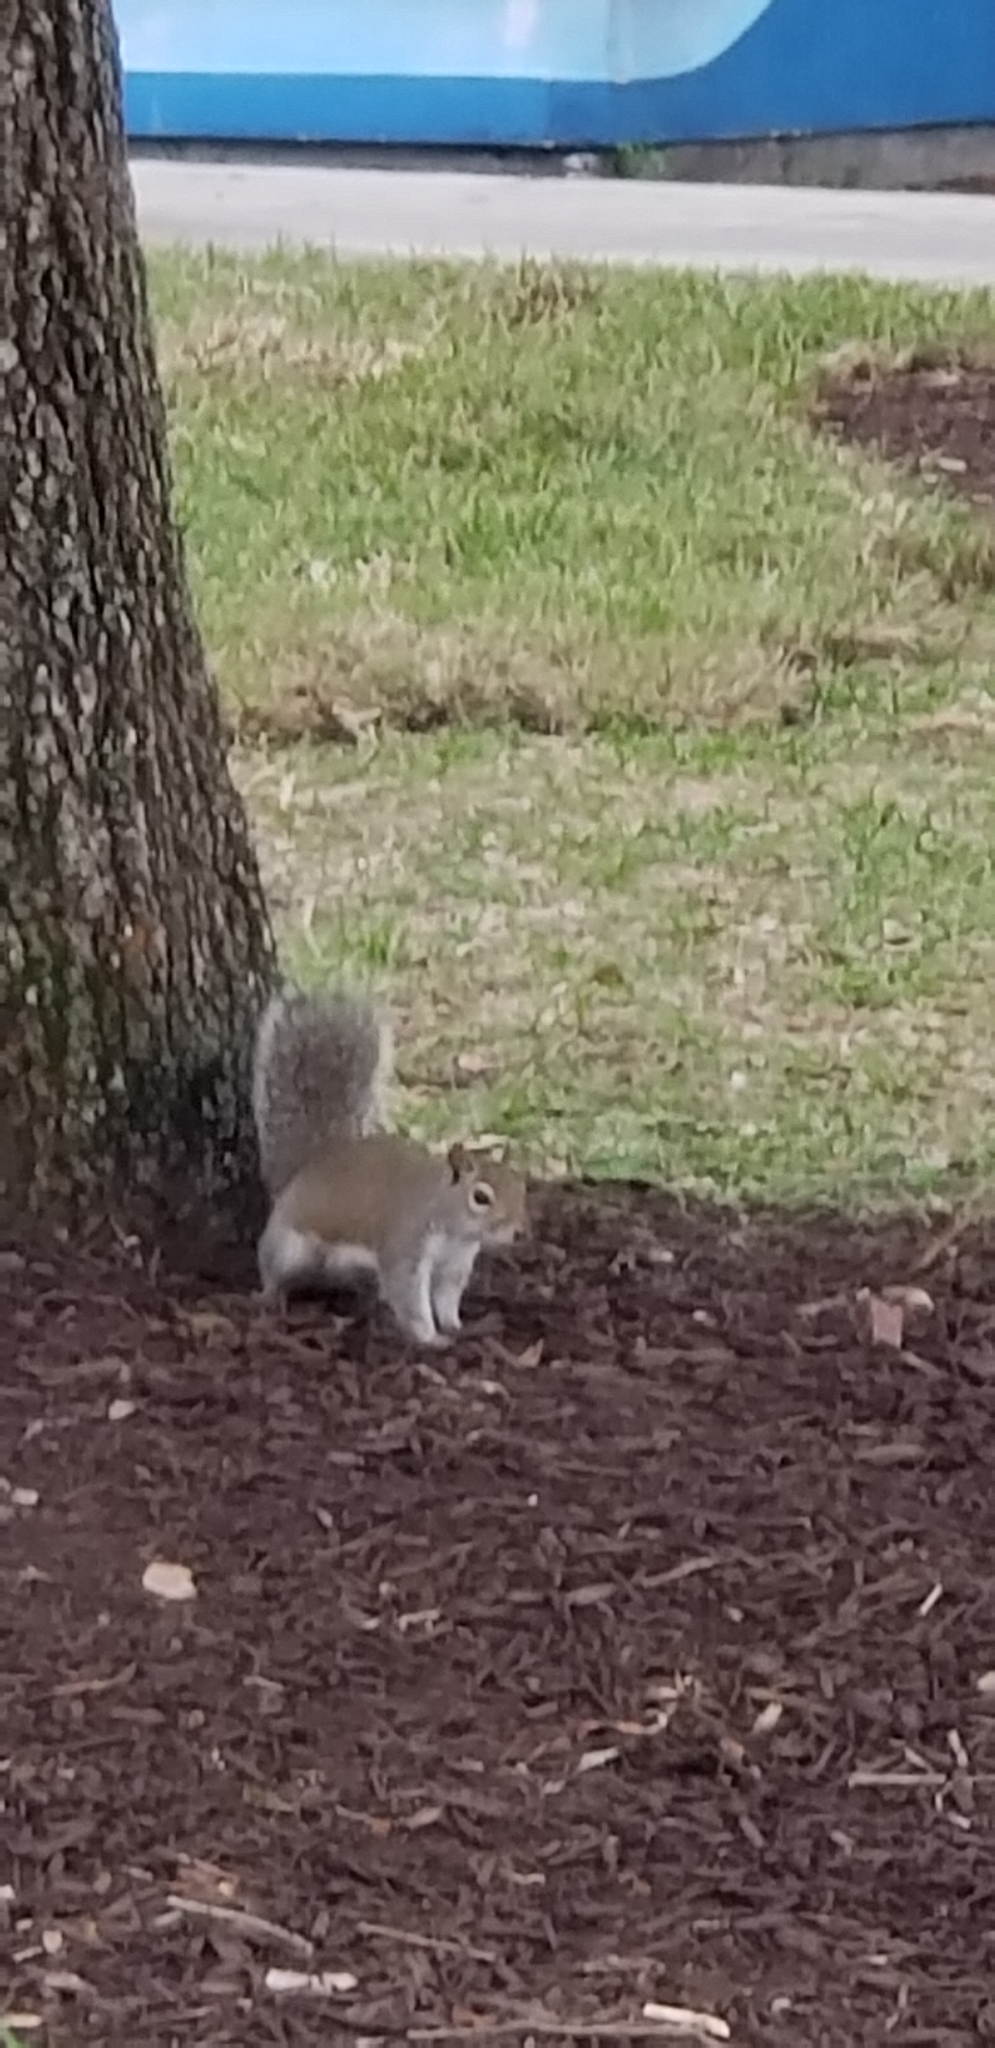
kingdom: Animalia
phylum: Chordata
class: Mammalia
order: Rodentia
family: Sciuridae
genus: Sciurus
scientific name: Sciurus carolinensis
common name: Eastern gray squirrel
